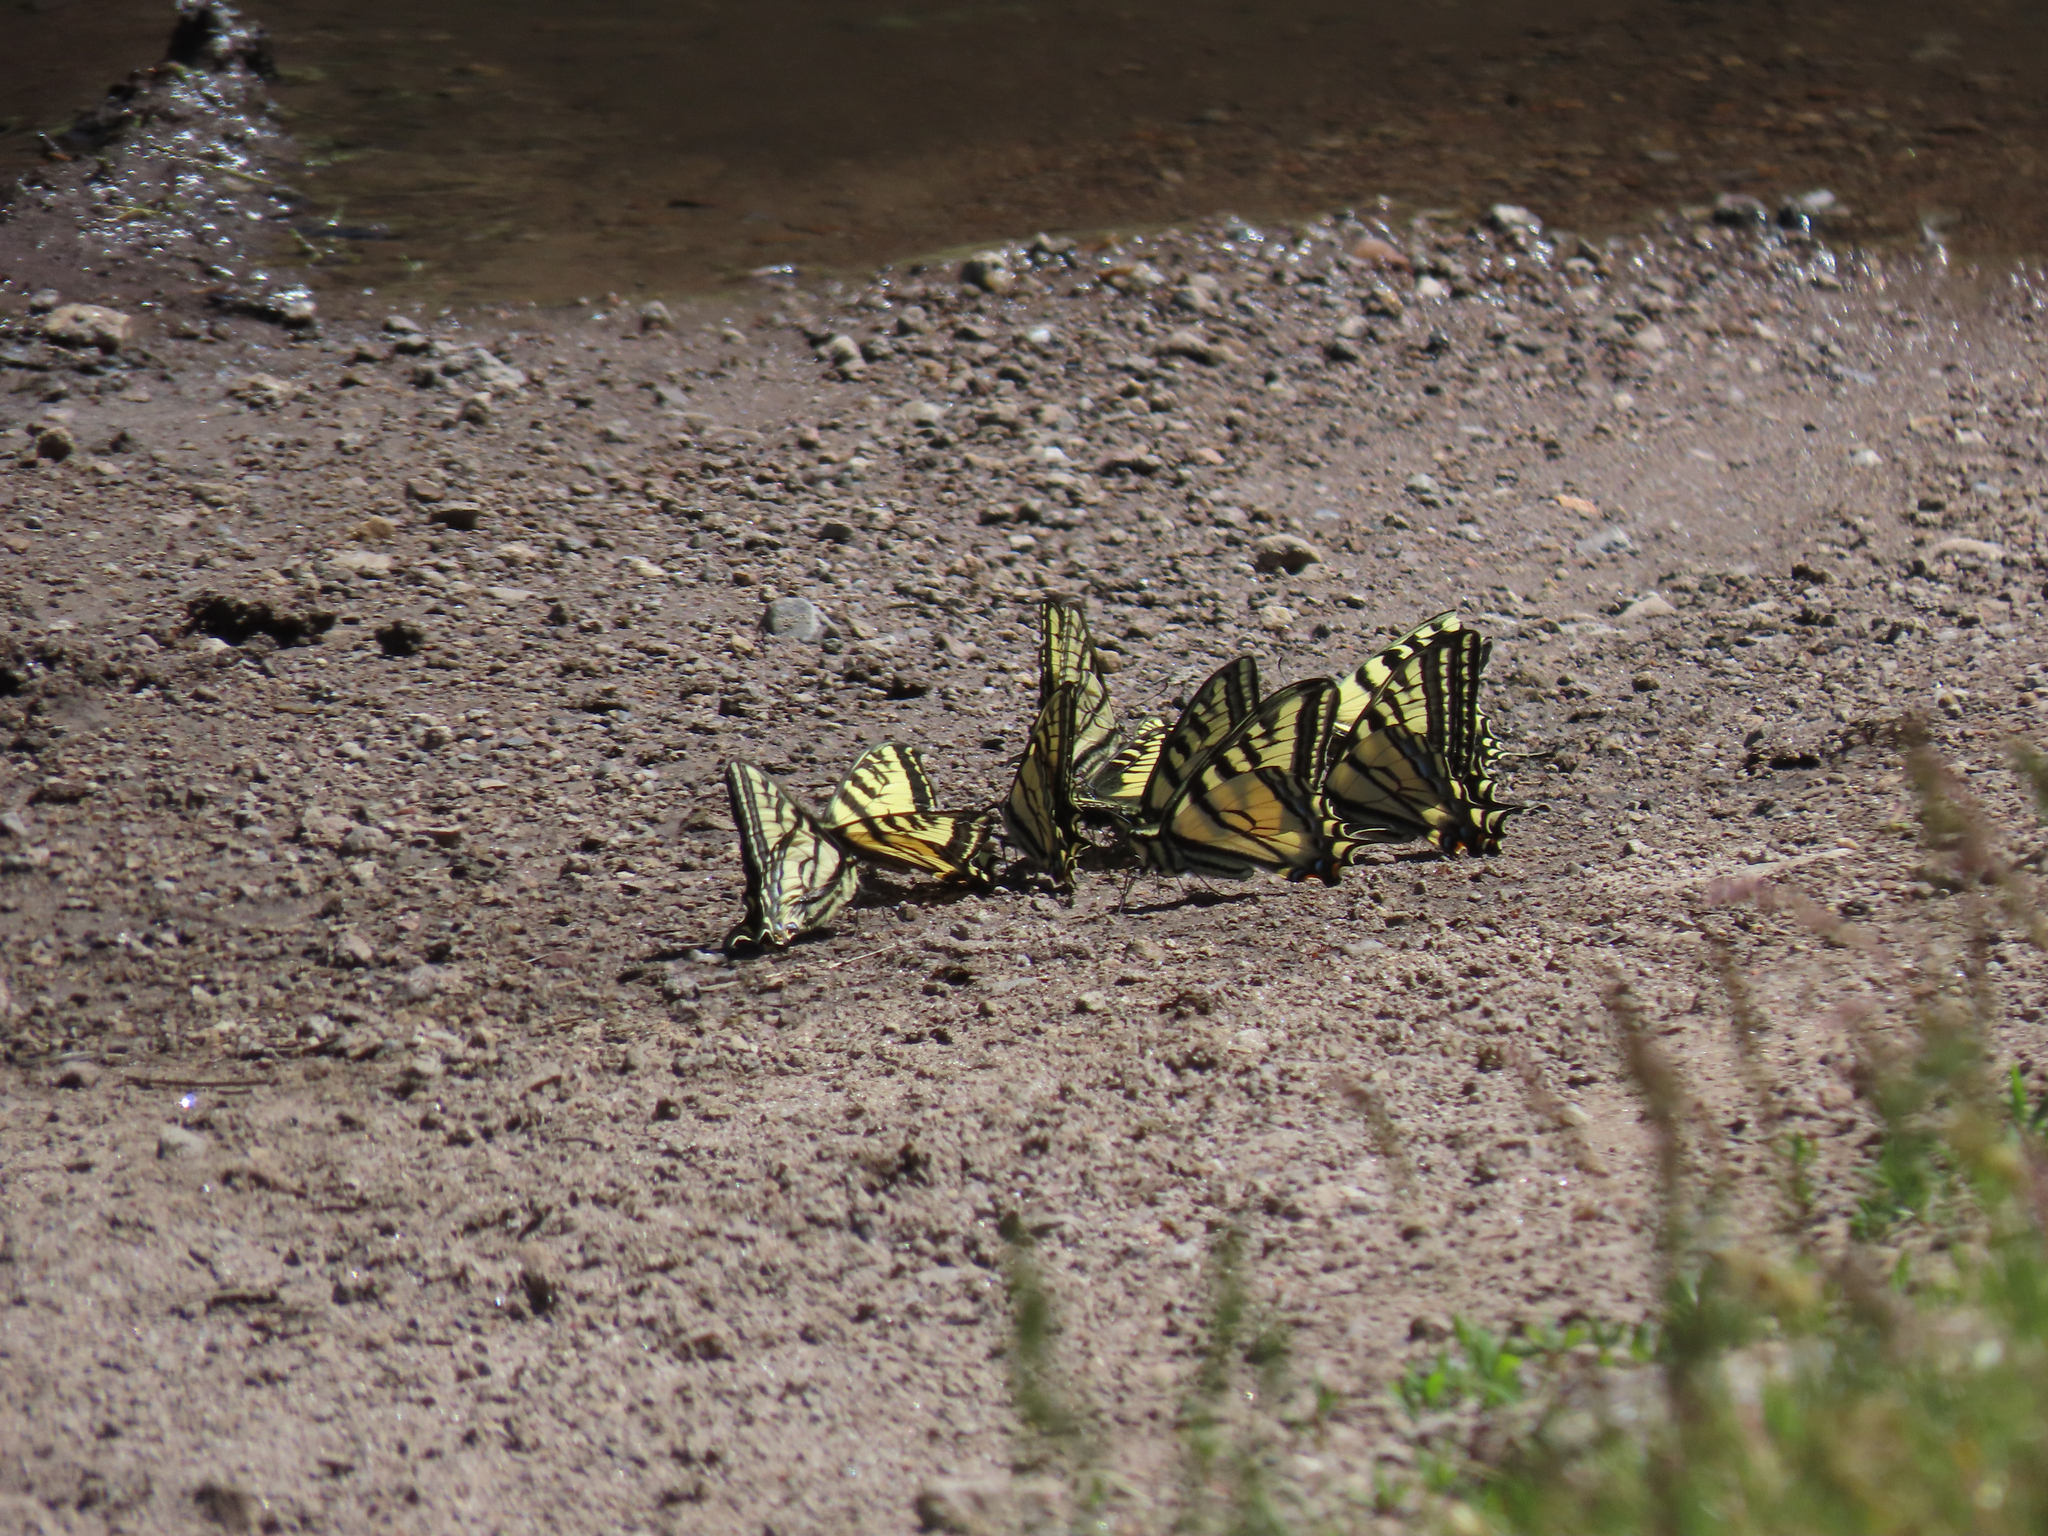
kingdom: Animalia
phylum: Arthropoda
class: Insecta
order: Lepidoptera
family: Papilionidae
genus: Papilio
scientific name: Papilio rutulus
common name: Western tiger swallowtail
